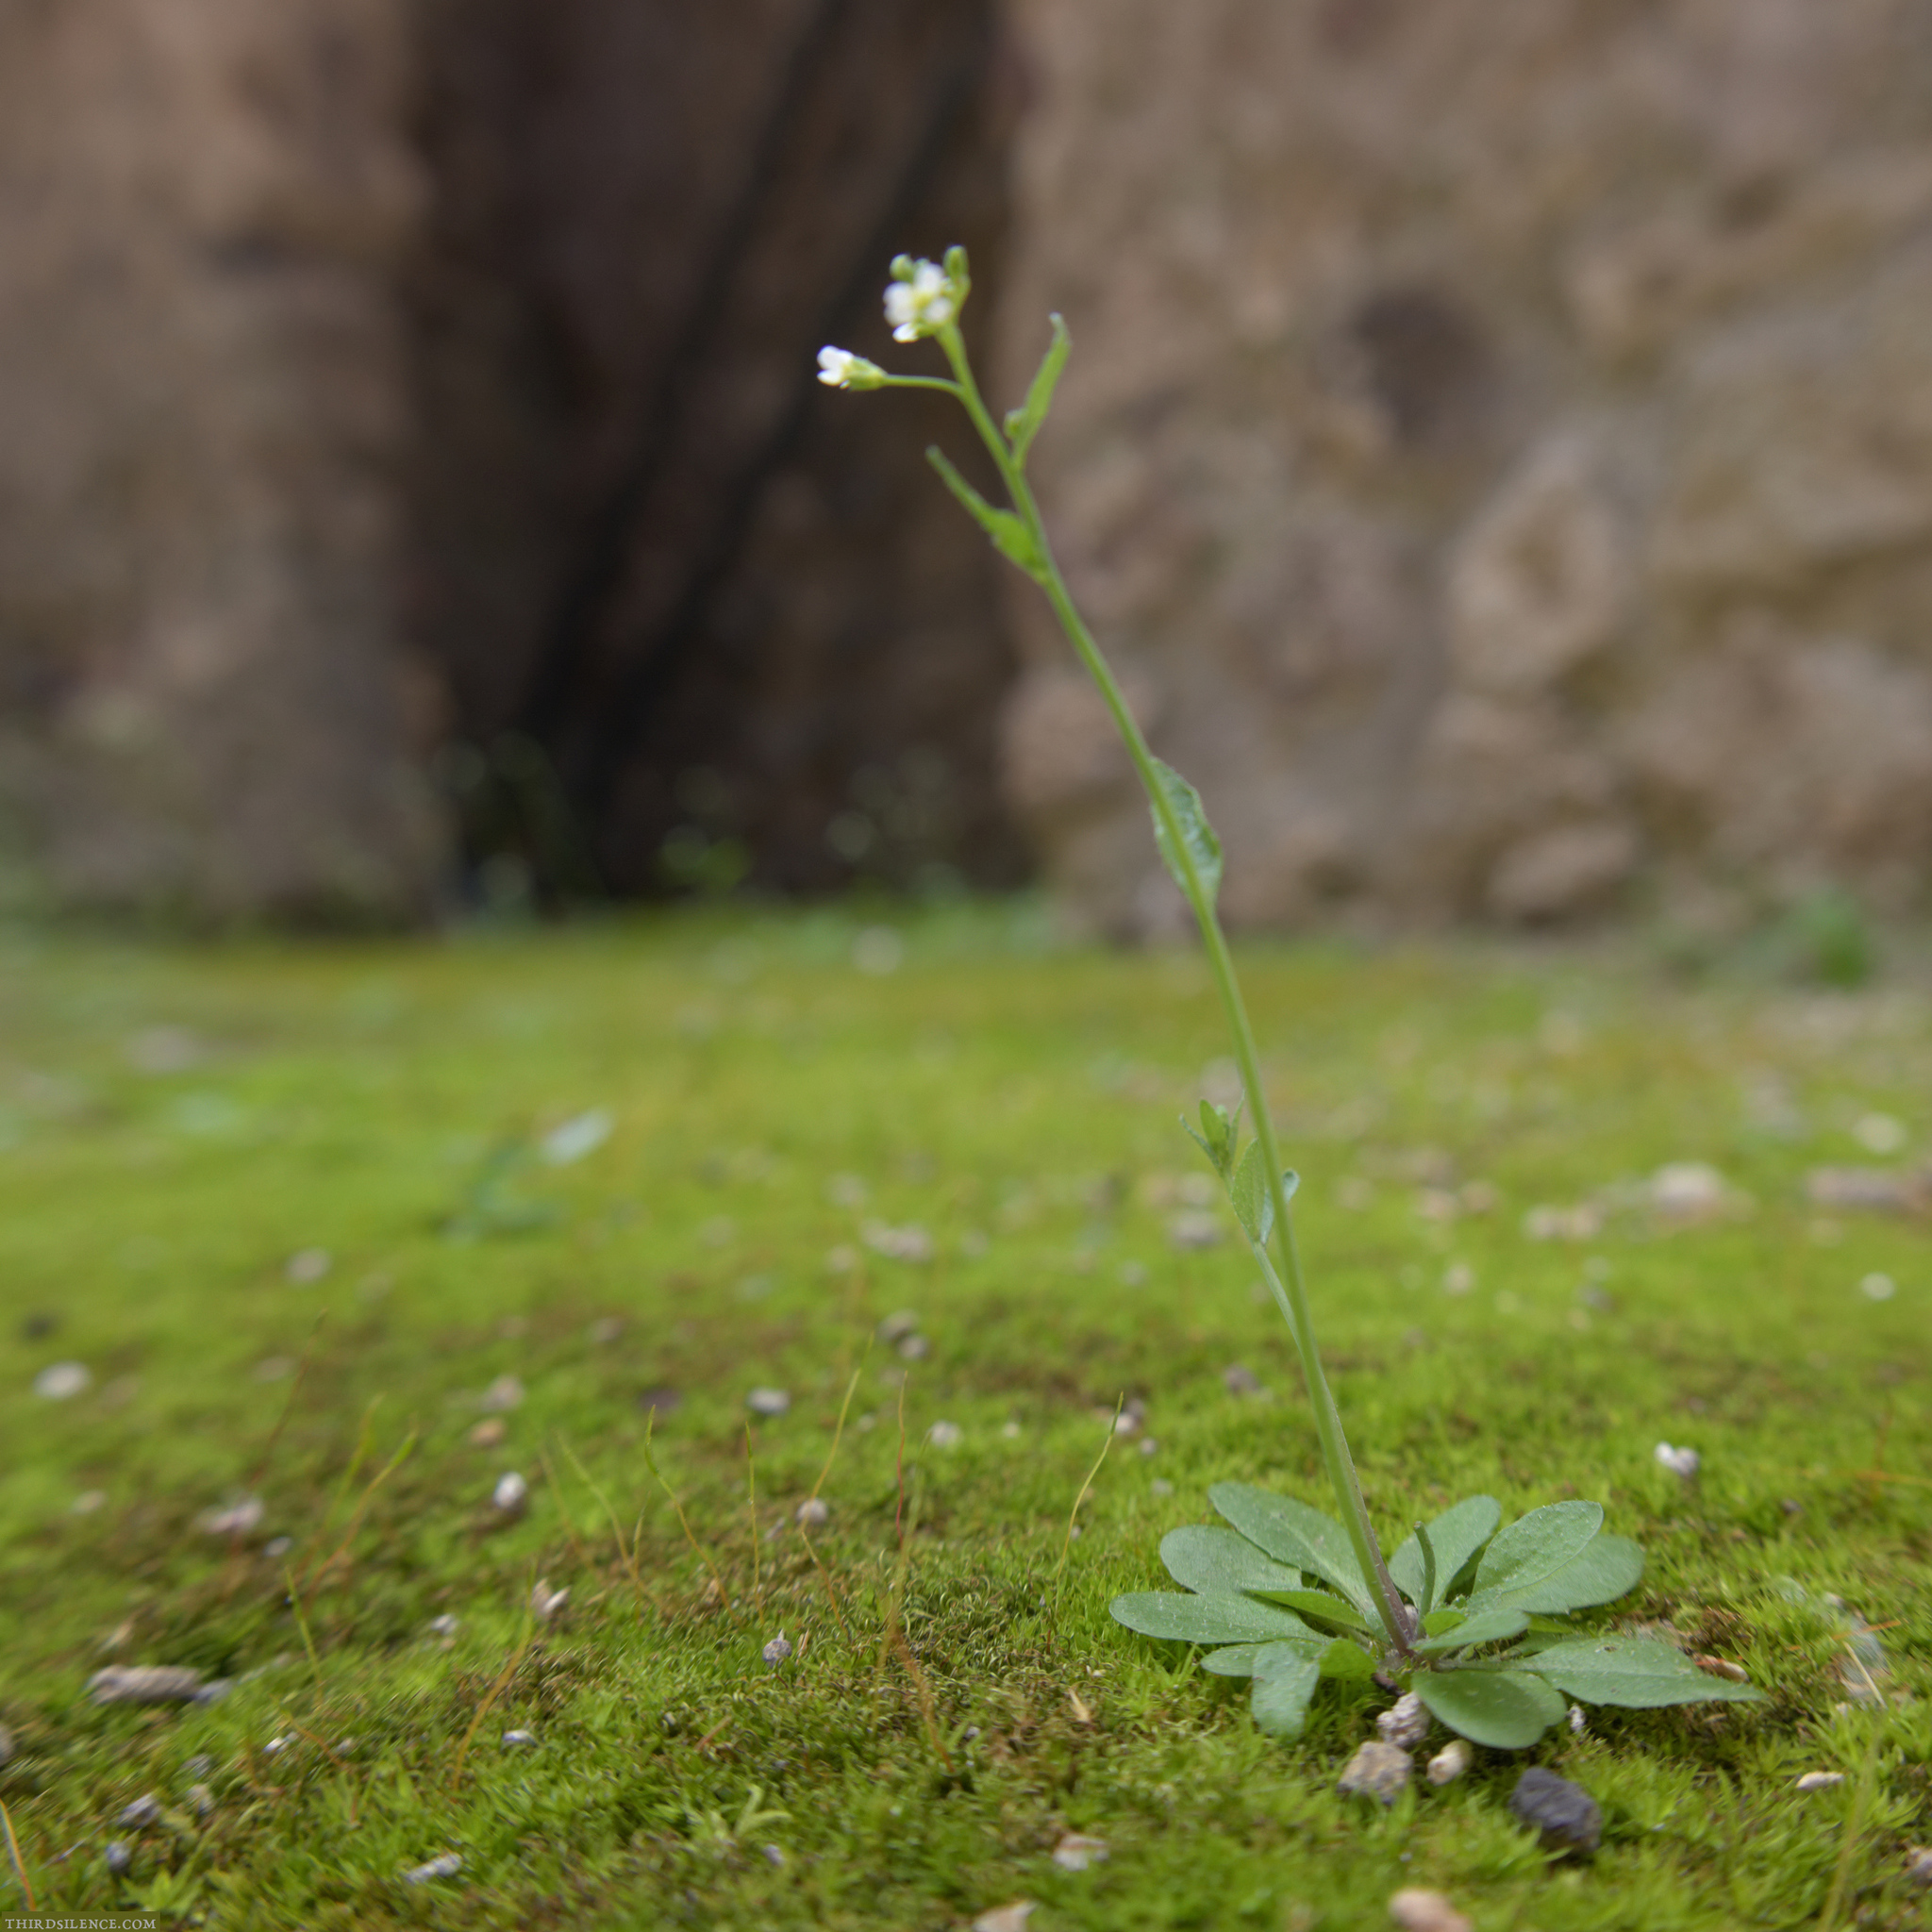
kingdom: Plantae
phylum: Tracheophyta
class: Magnoliopsida
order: Brassicales
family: Brassicaceae
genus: Arabidopsis
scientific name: Arabidopsis thaliana
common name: Thale cress
